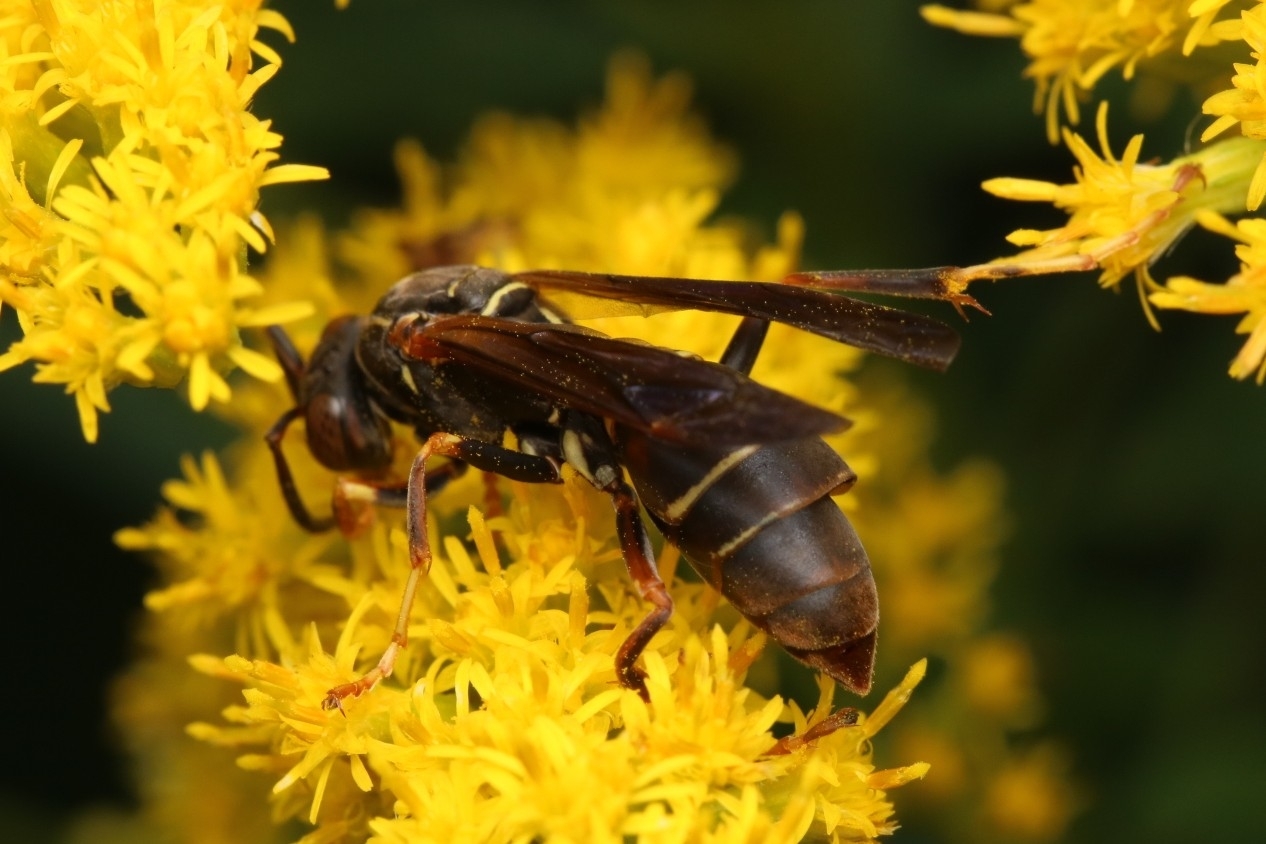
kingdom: Animalia
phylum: Arthropoda
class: Insecta
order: Strepsiptera
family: Xenidae
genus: Xenos
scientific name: Xenos pecki
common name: Twisted wing parasite
